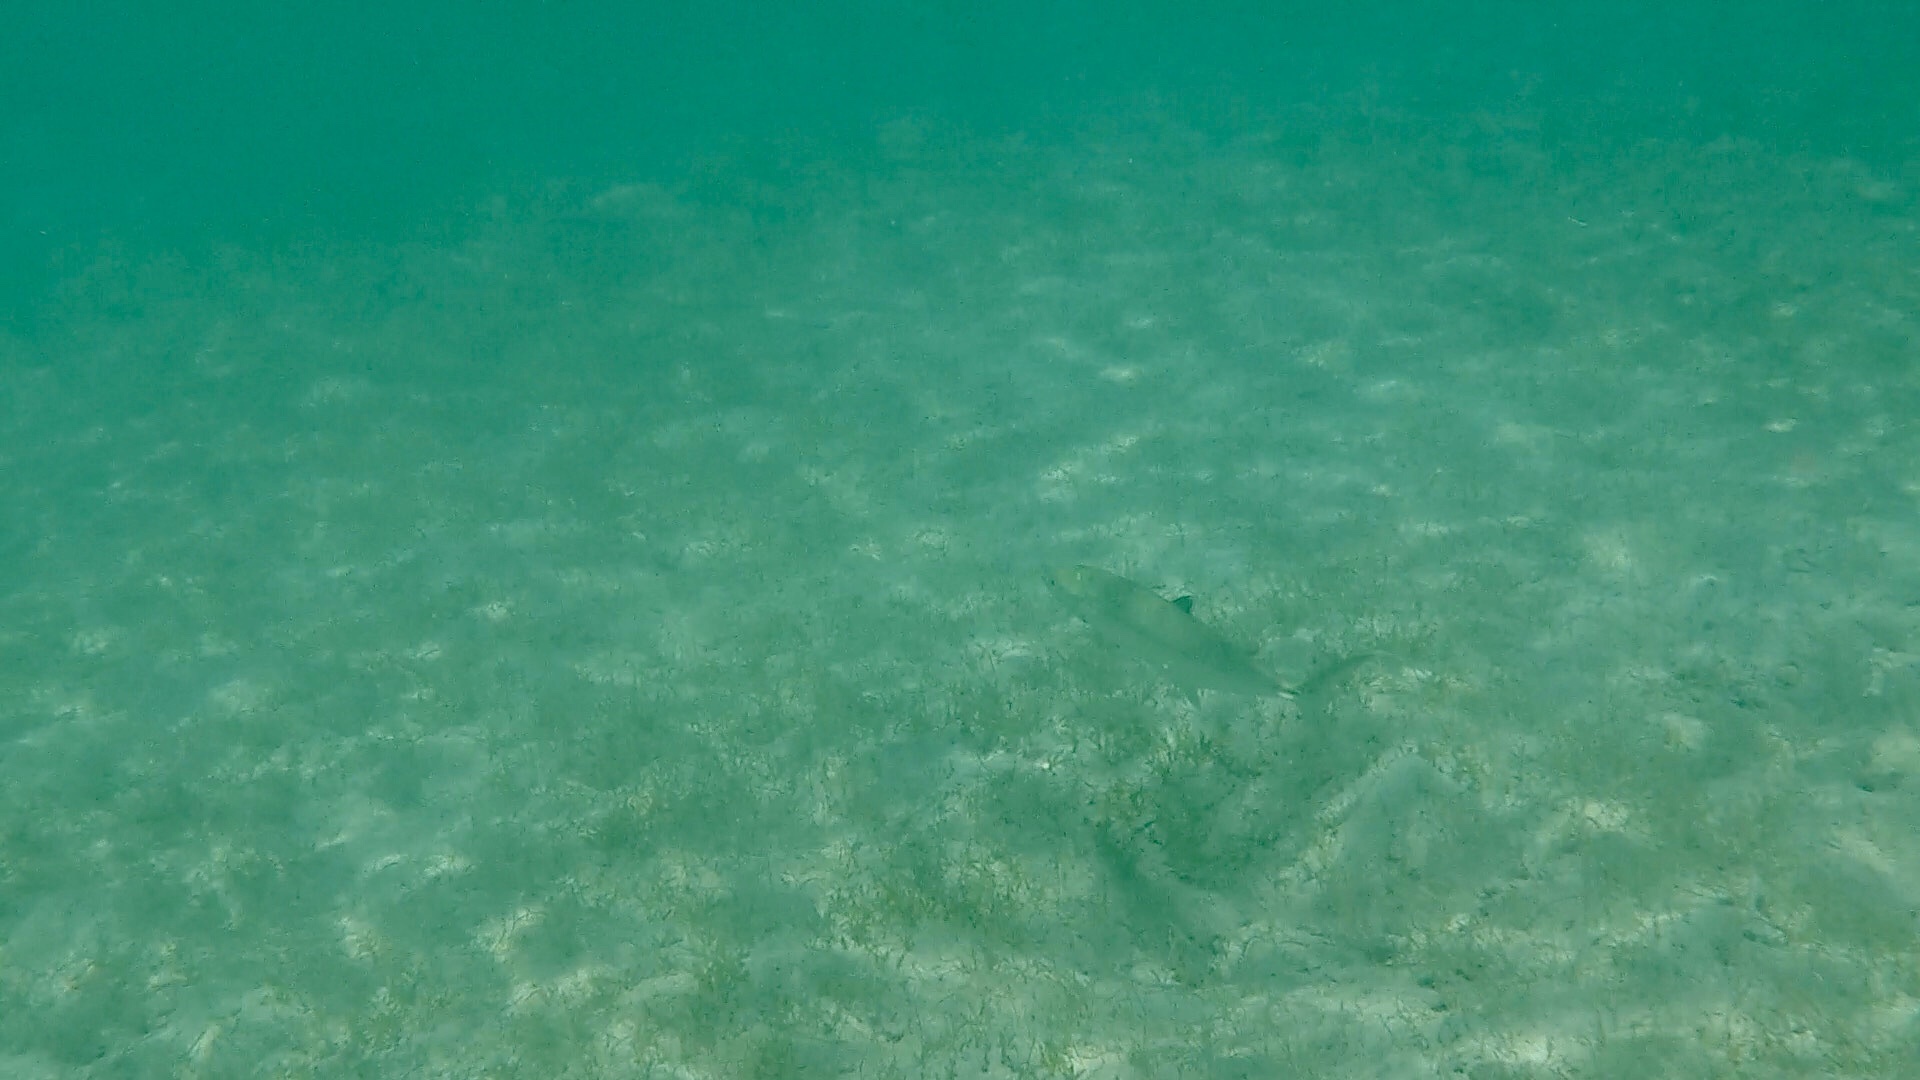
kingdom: Animalia
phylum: Chordata
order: Perciformes
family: Scombridae
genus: Scomberomorus
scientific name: Scomberomorus regalis
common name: Cero
